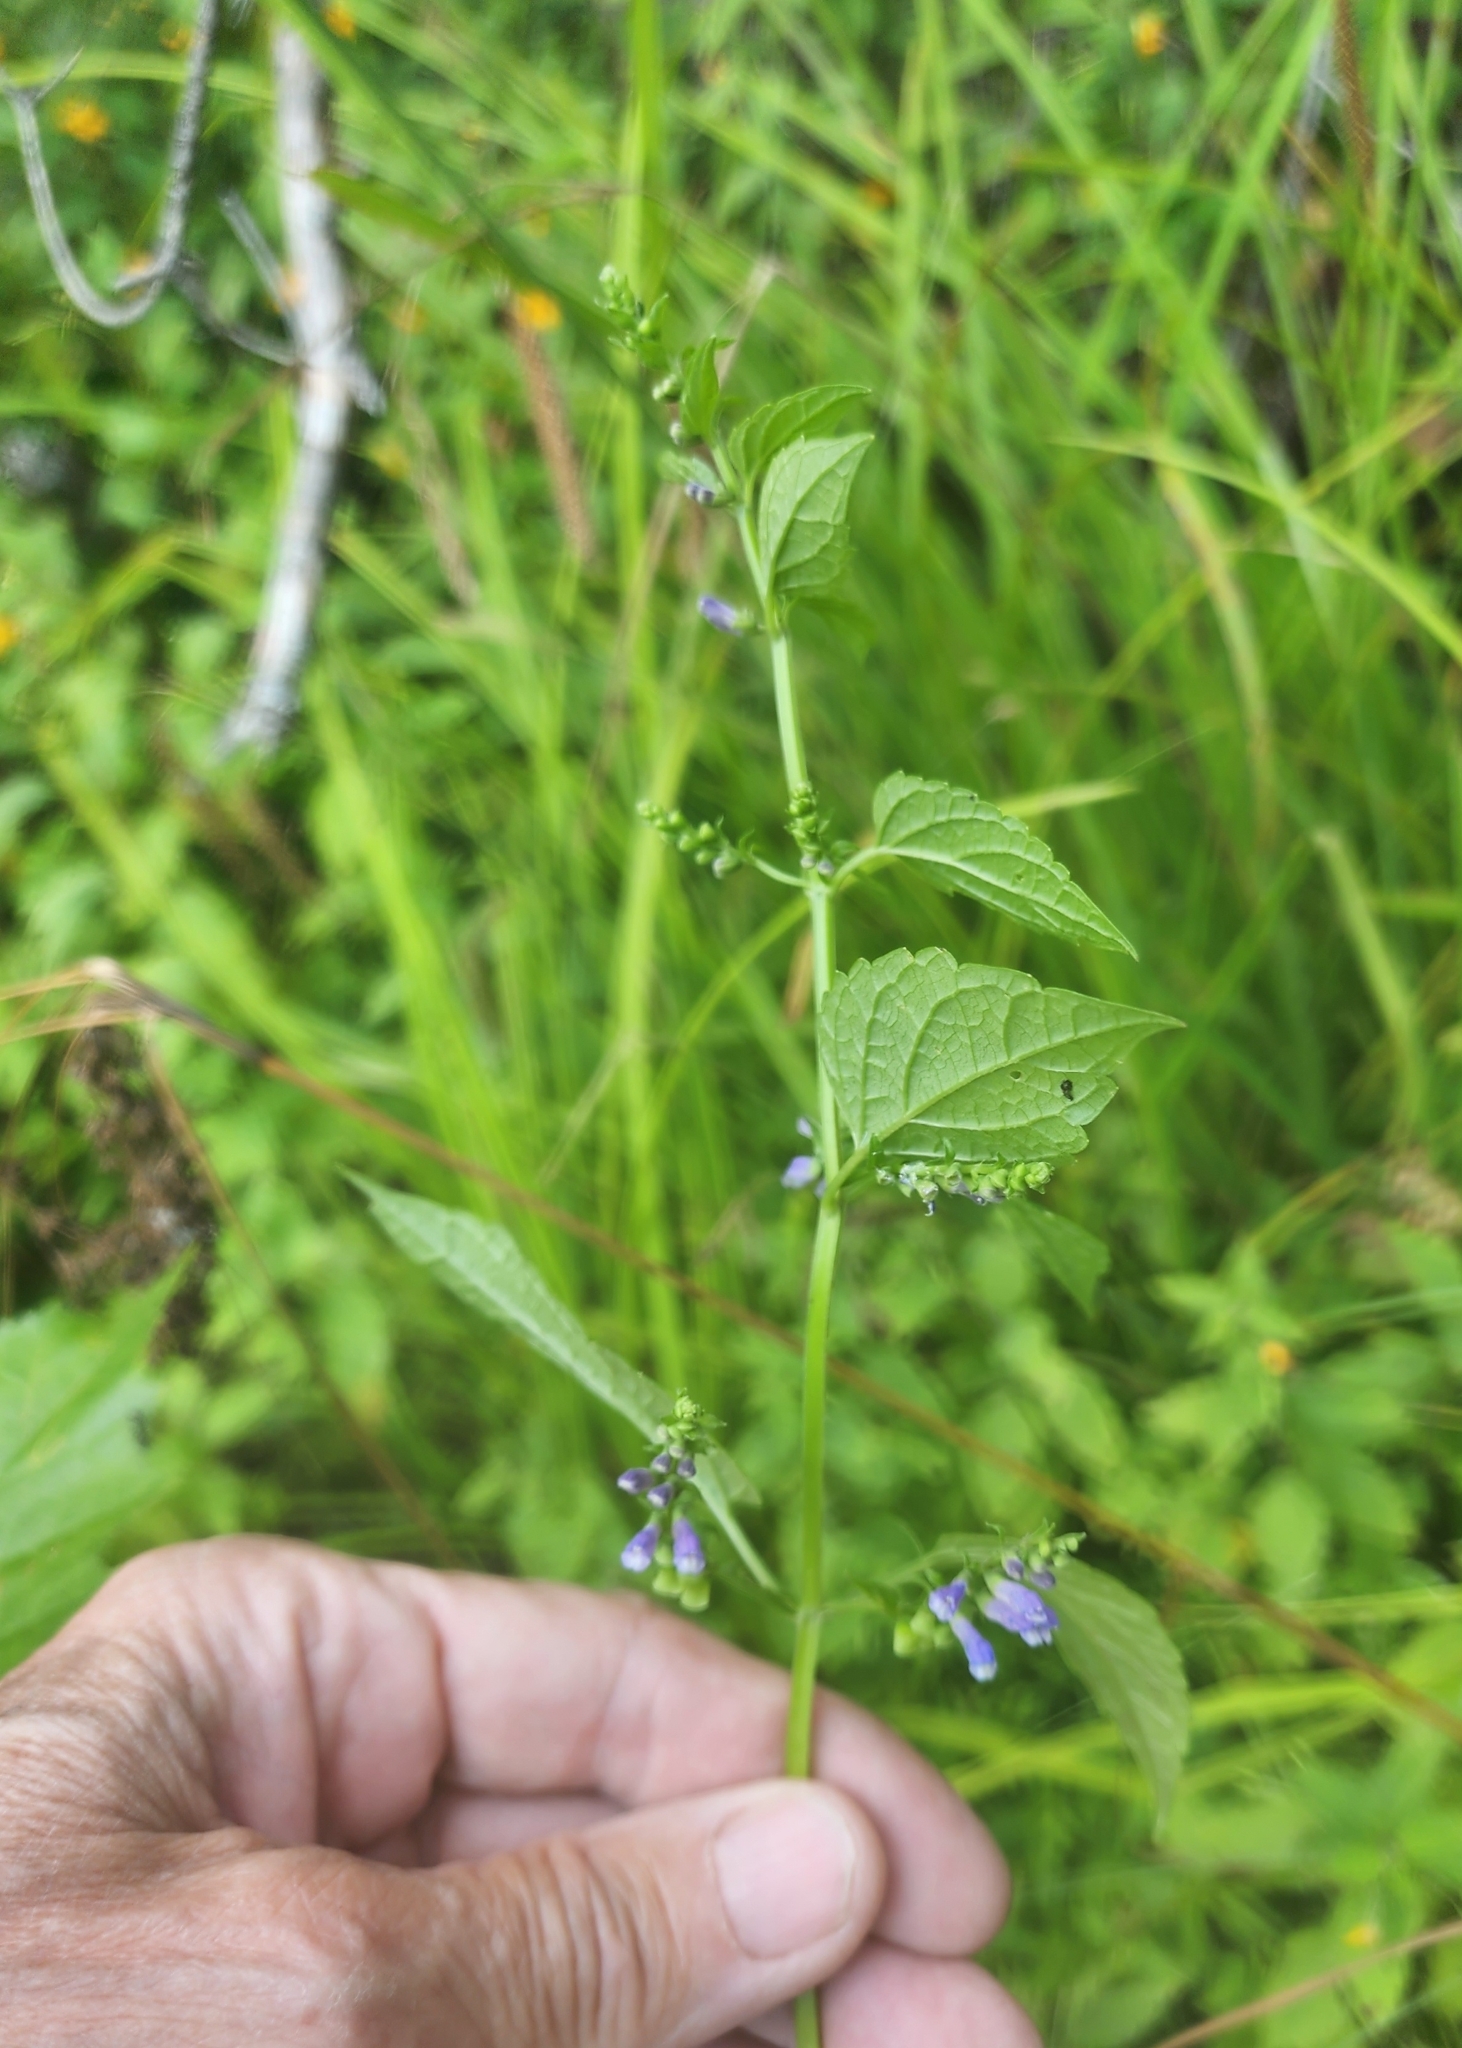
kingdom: Plantae
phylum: Tracheophyta
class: Magnoliopsida
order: Lamiales
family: Lamiaceae
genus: Scutellaria
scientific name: Scutellaria lateriflora
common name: Blue skullcap
